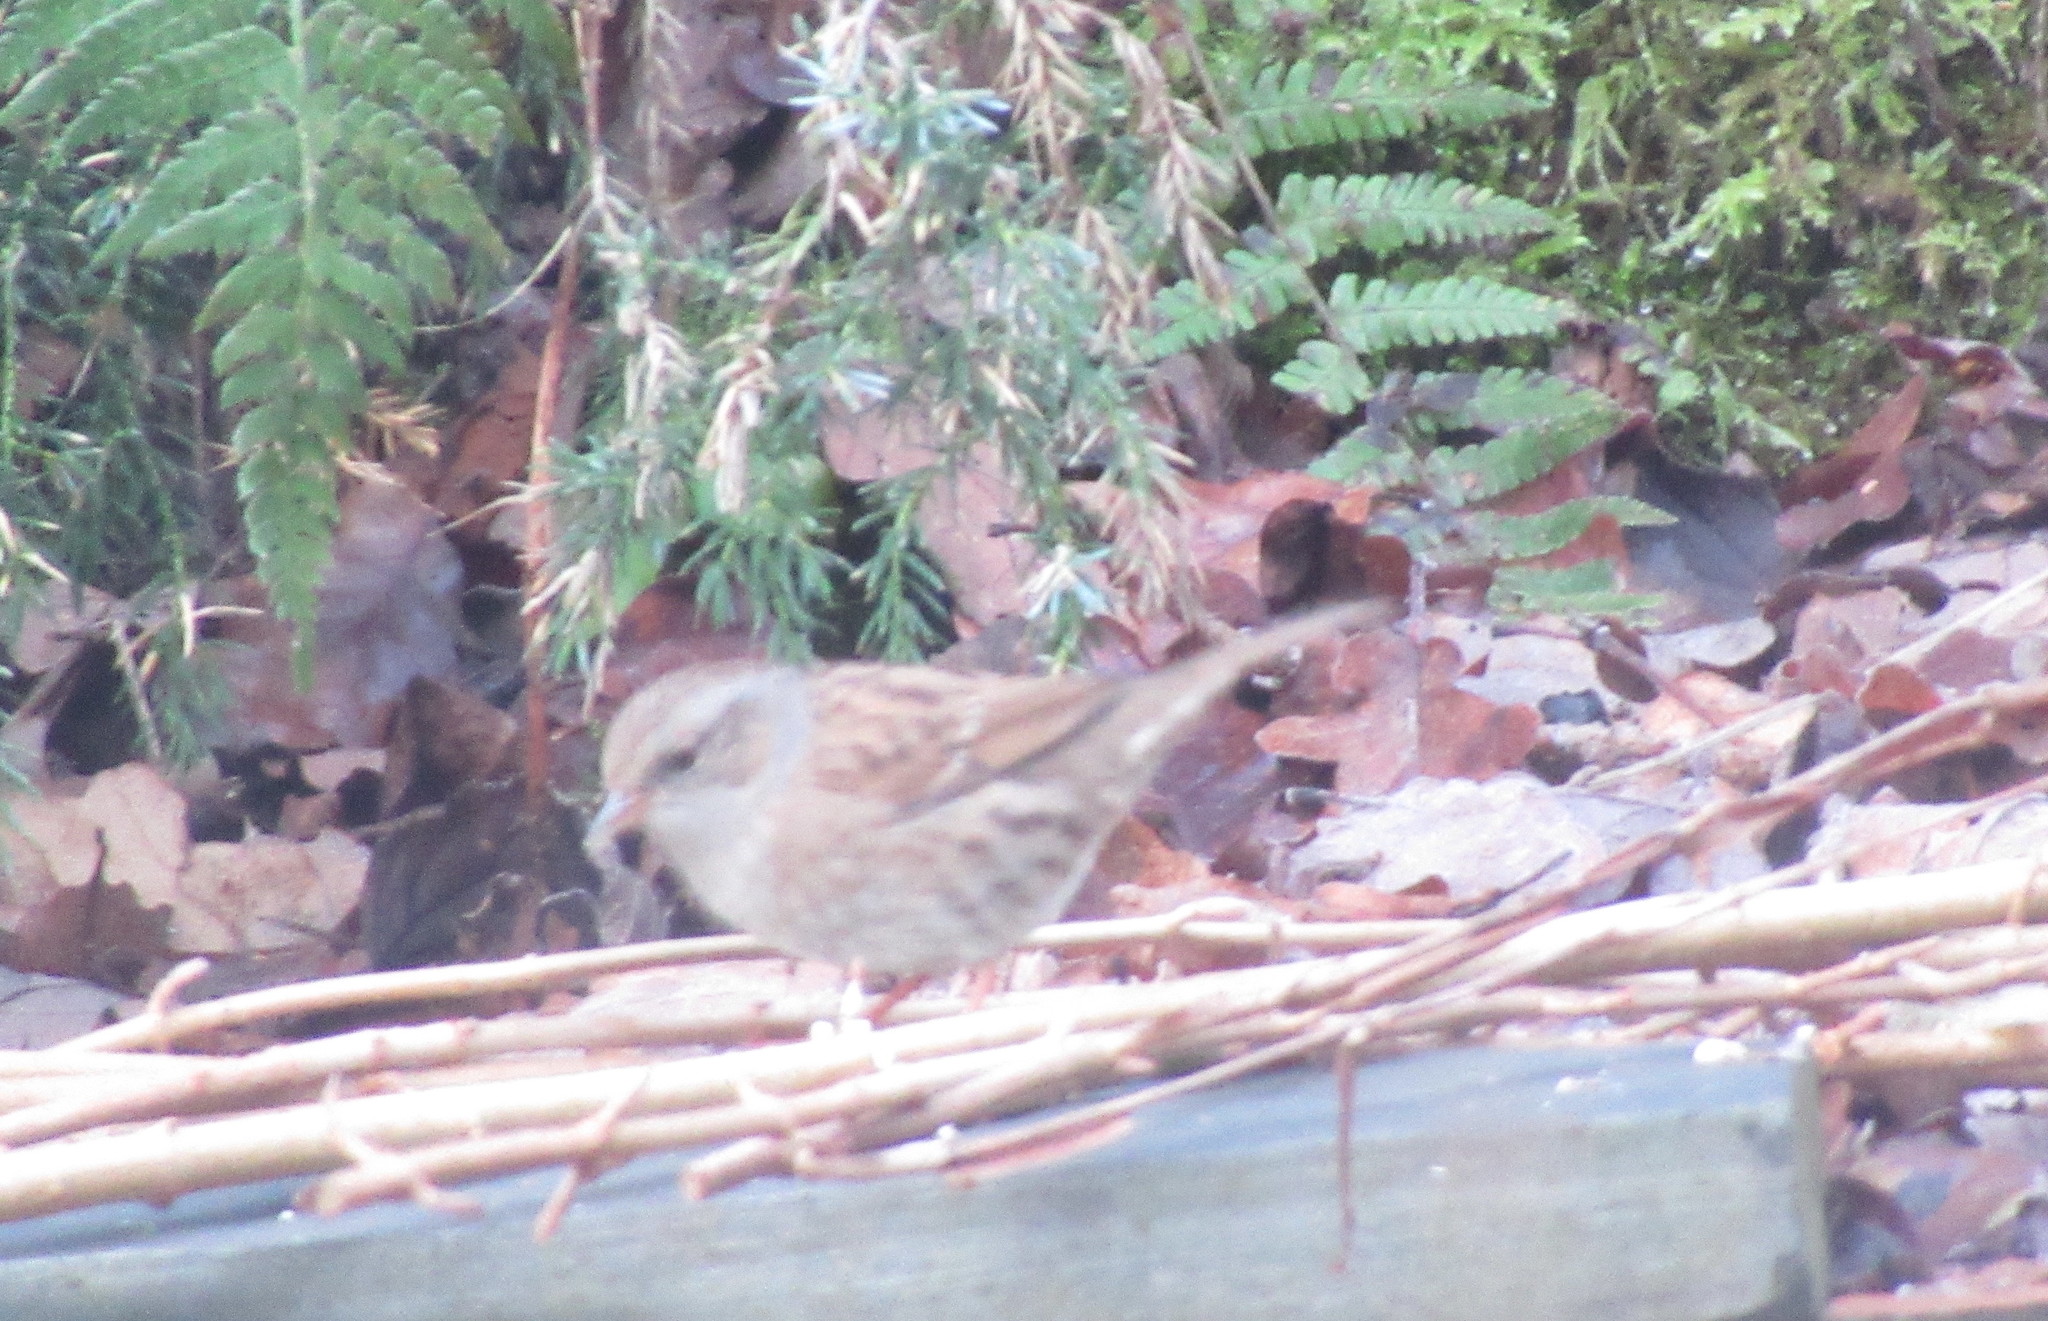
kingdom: Animalia
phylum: Chordata
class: Aves
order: Passeriformes
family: Prunellidae
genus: Prunella
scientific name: Prunella modularis
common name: Dunnock
